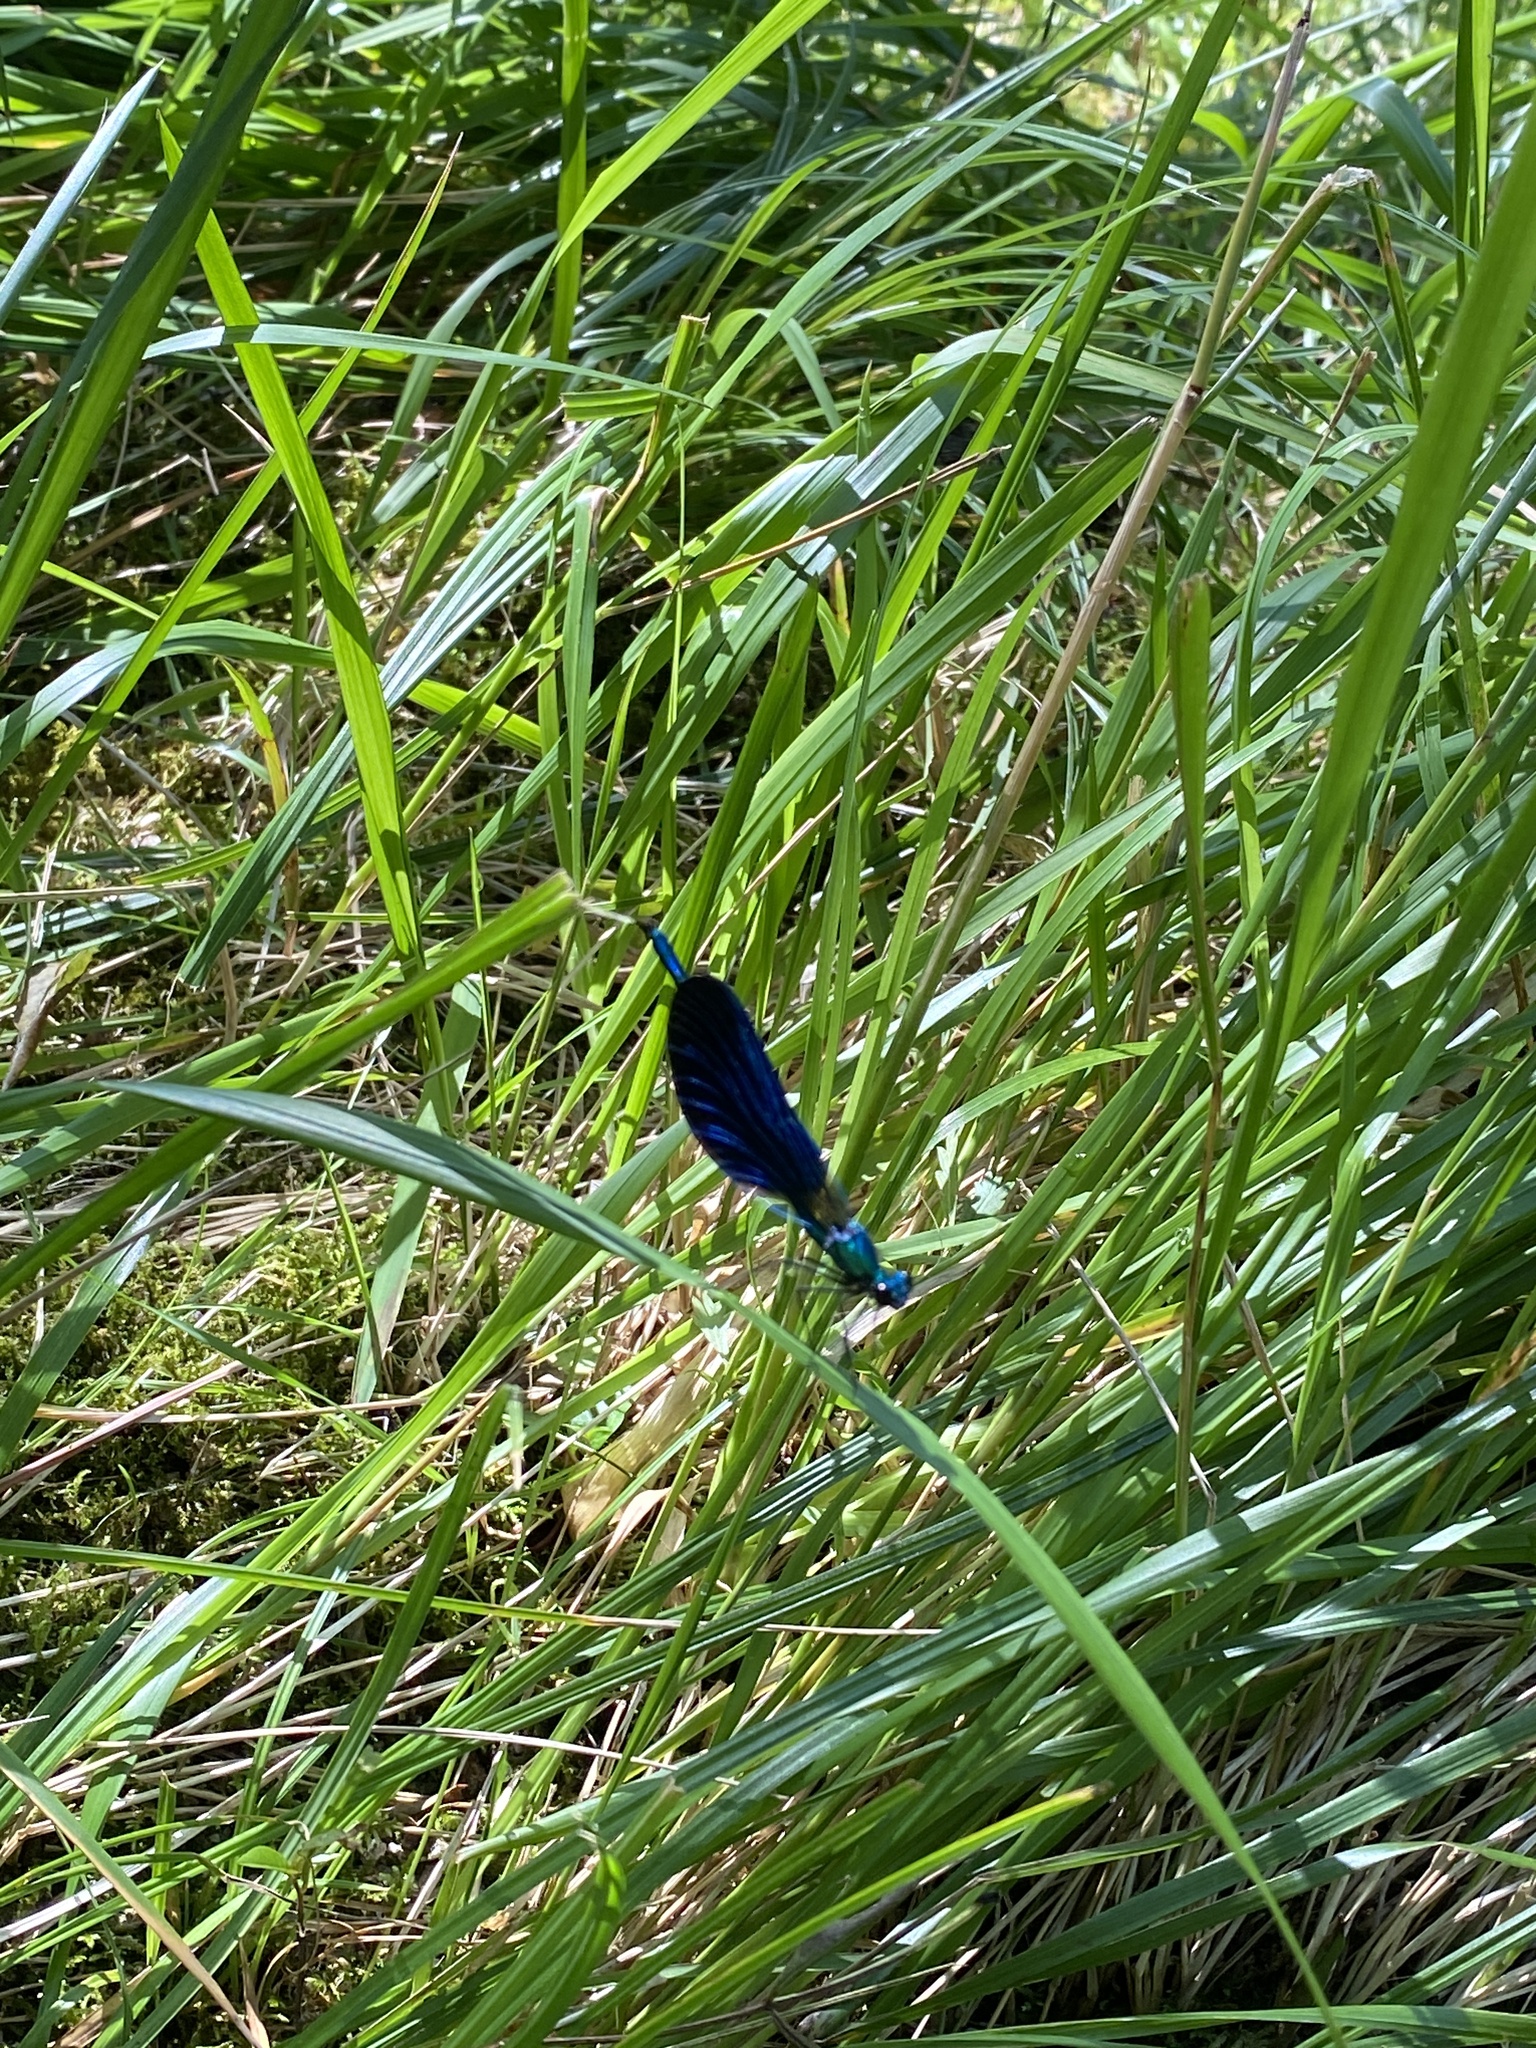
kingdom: Animalia
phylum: Arthropoda
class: Insecta
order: Odonata
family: Calopterygidae
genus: Calopteryx
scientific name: Calopteryx virgo
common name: Beautiful demoiselle
